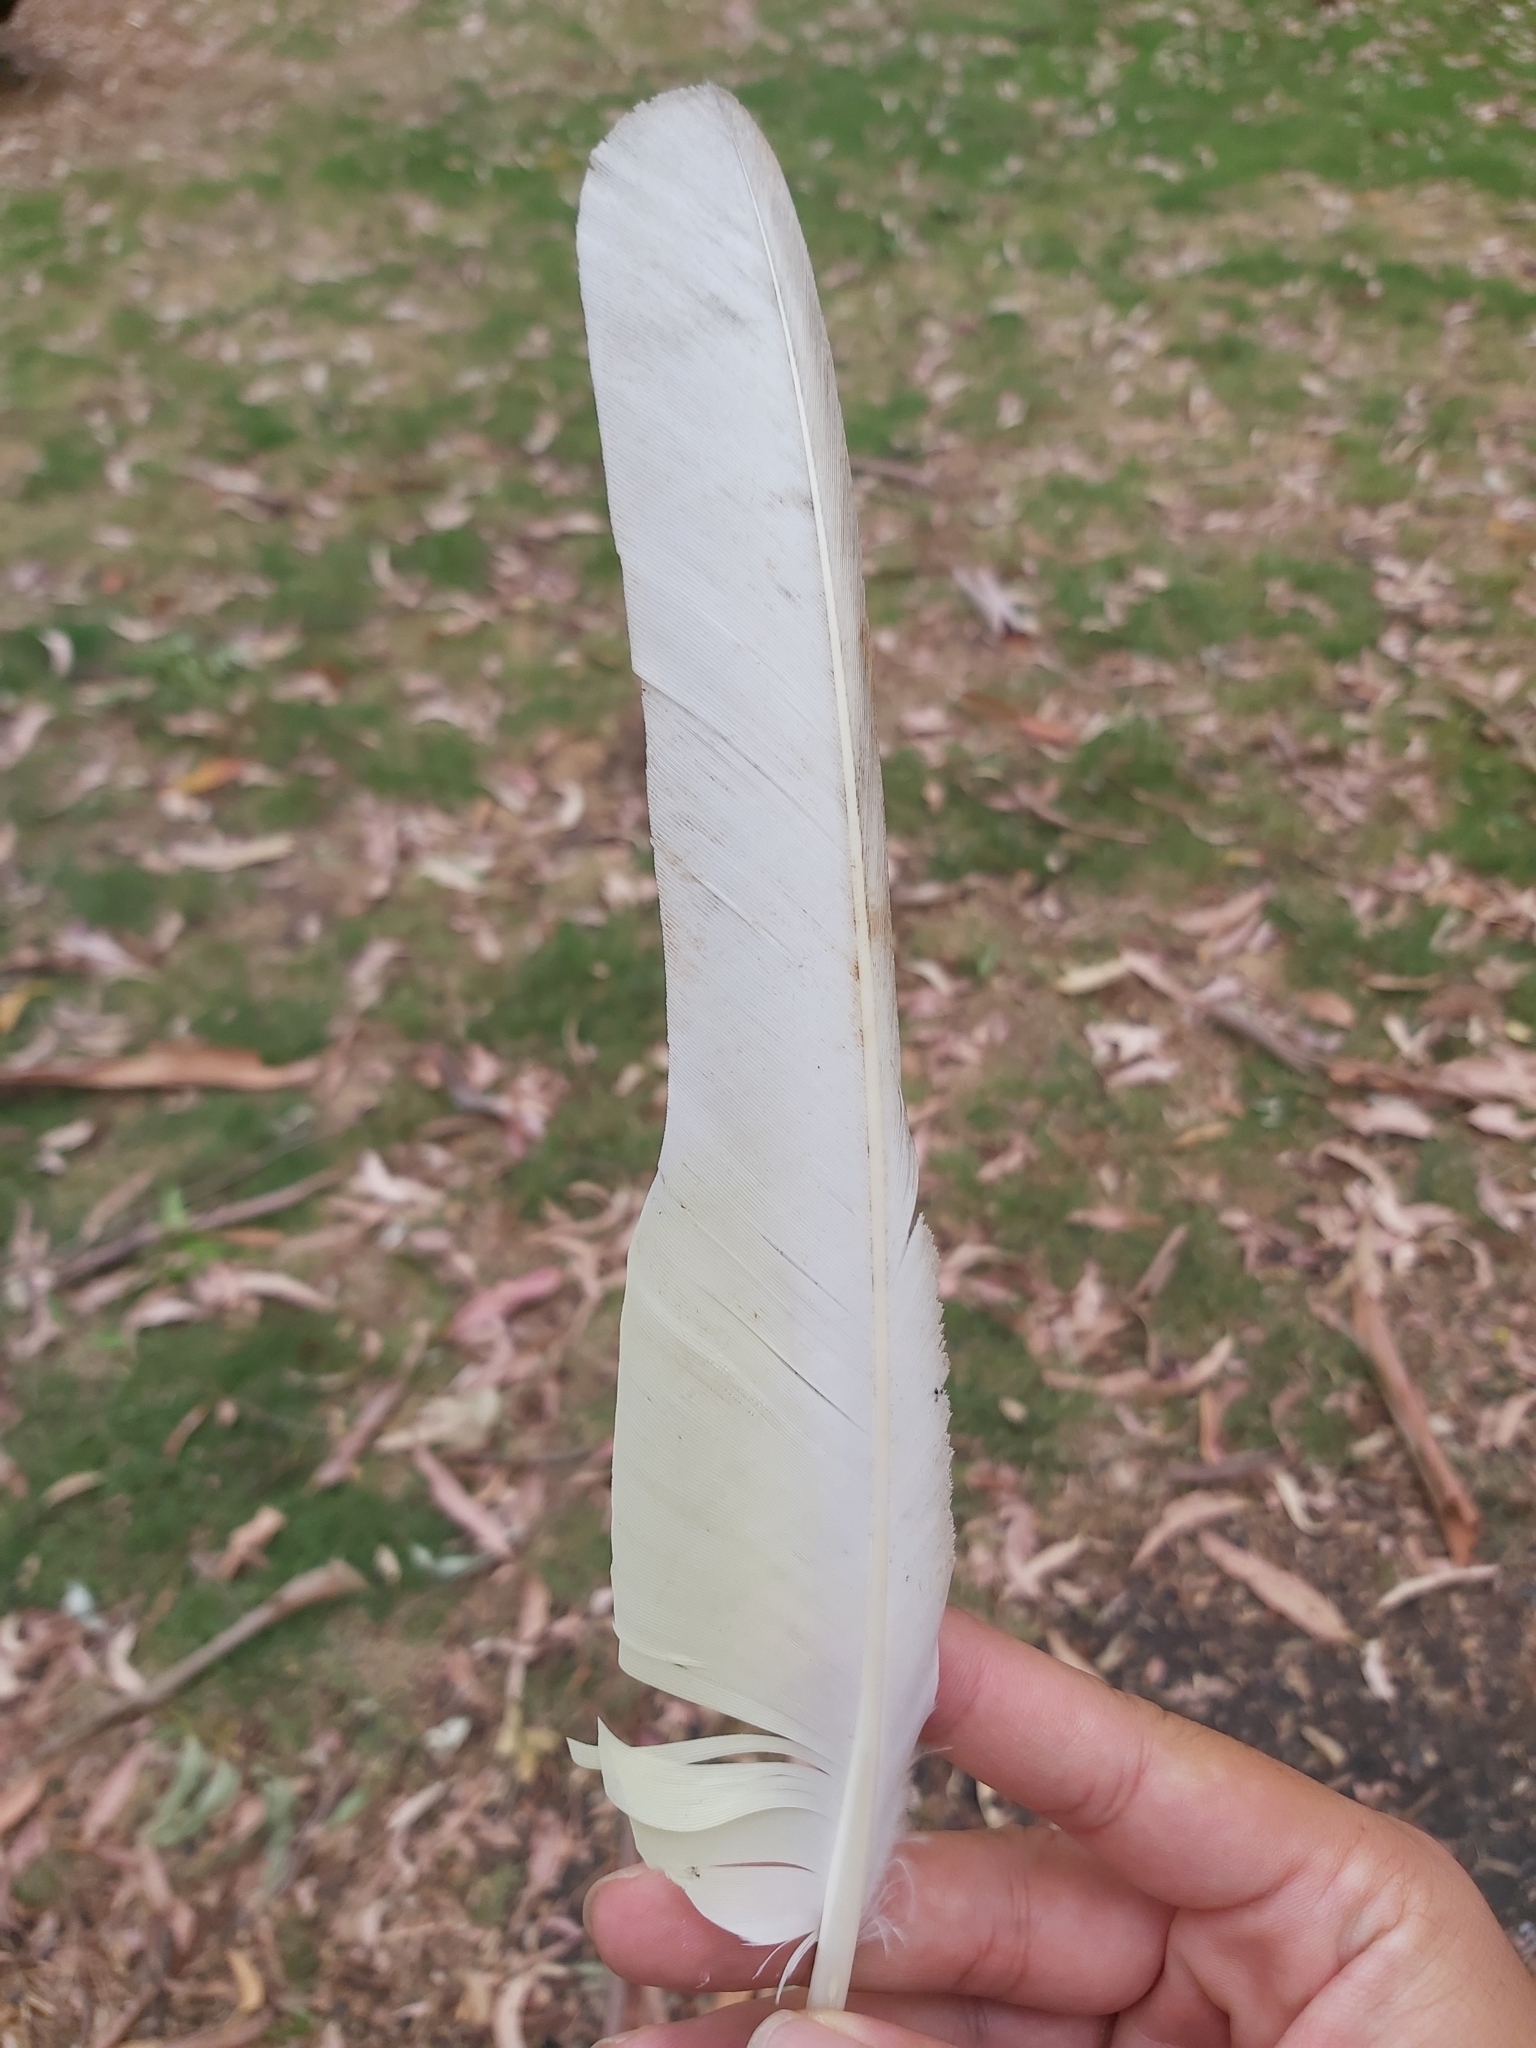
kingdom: Animalia
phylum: Chordata
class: Aves
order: Psittaciformes
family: Psittacidae
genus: Cacatua
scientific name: Cacatua galerita
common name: Sulphur-crested cockatoo
